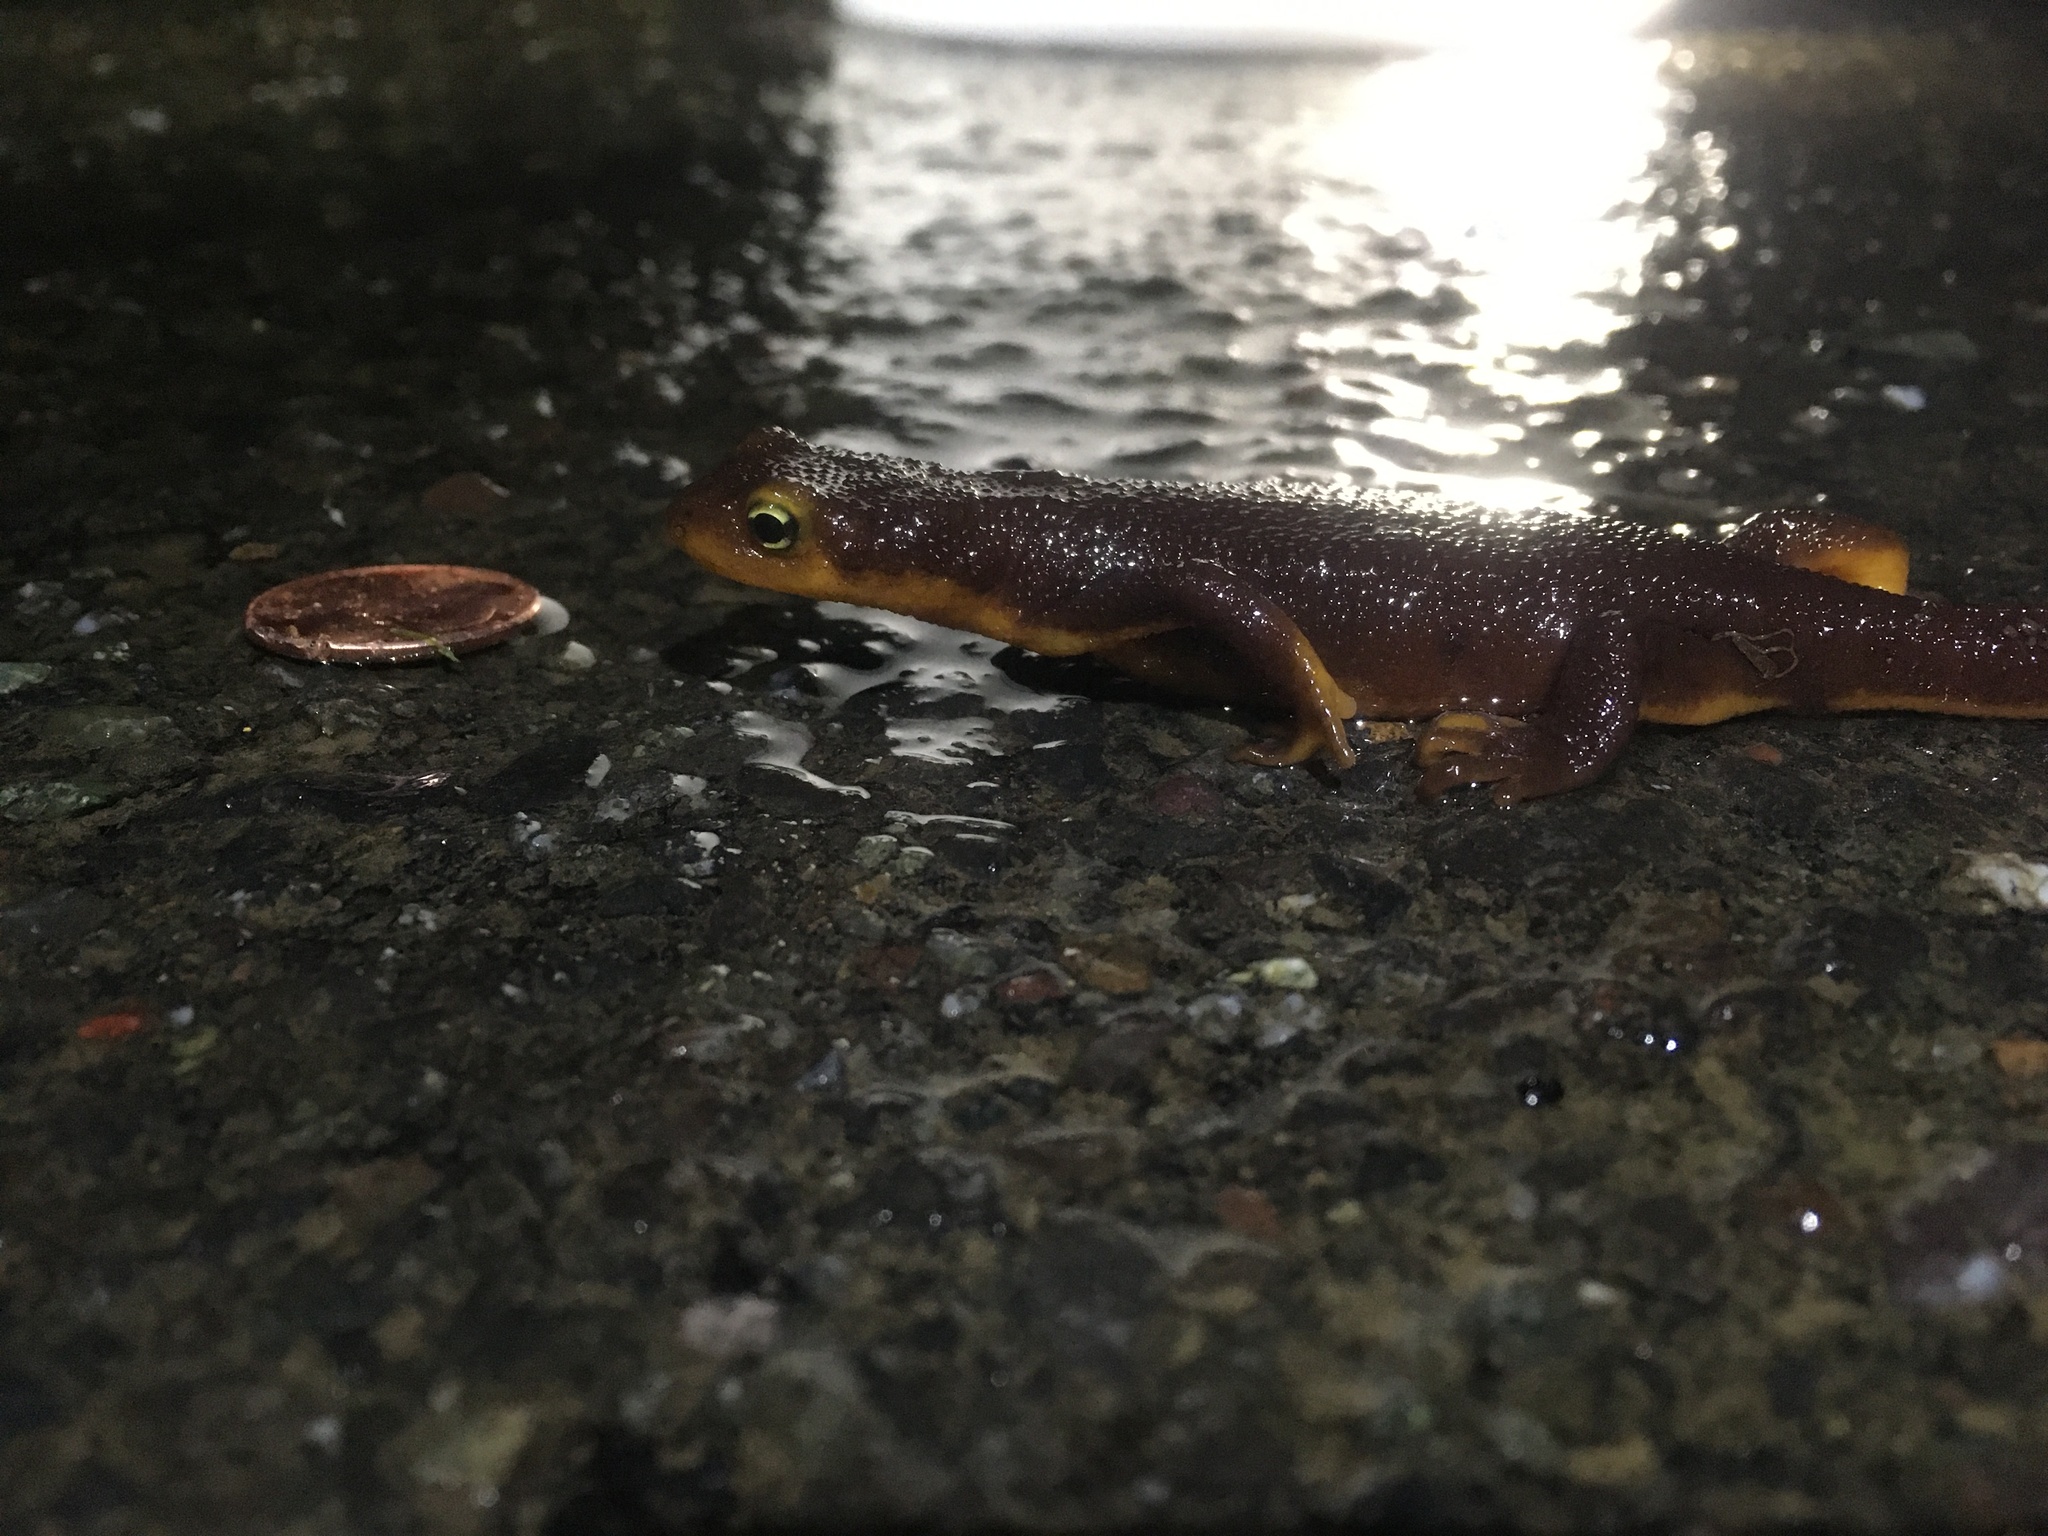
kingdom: Animalia
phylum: Chordata
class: Amphibia
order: Caudata
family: Salamandridae
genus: Taricha
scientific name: Taricha torosa
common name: California newt
